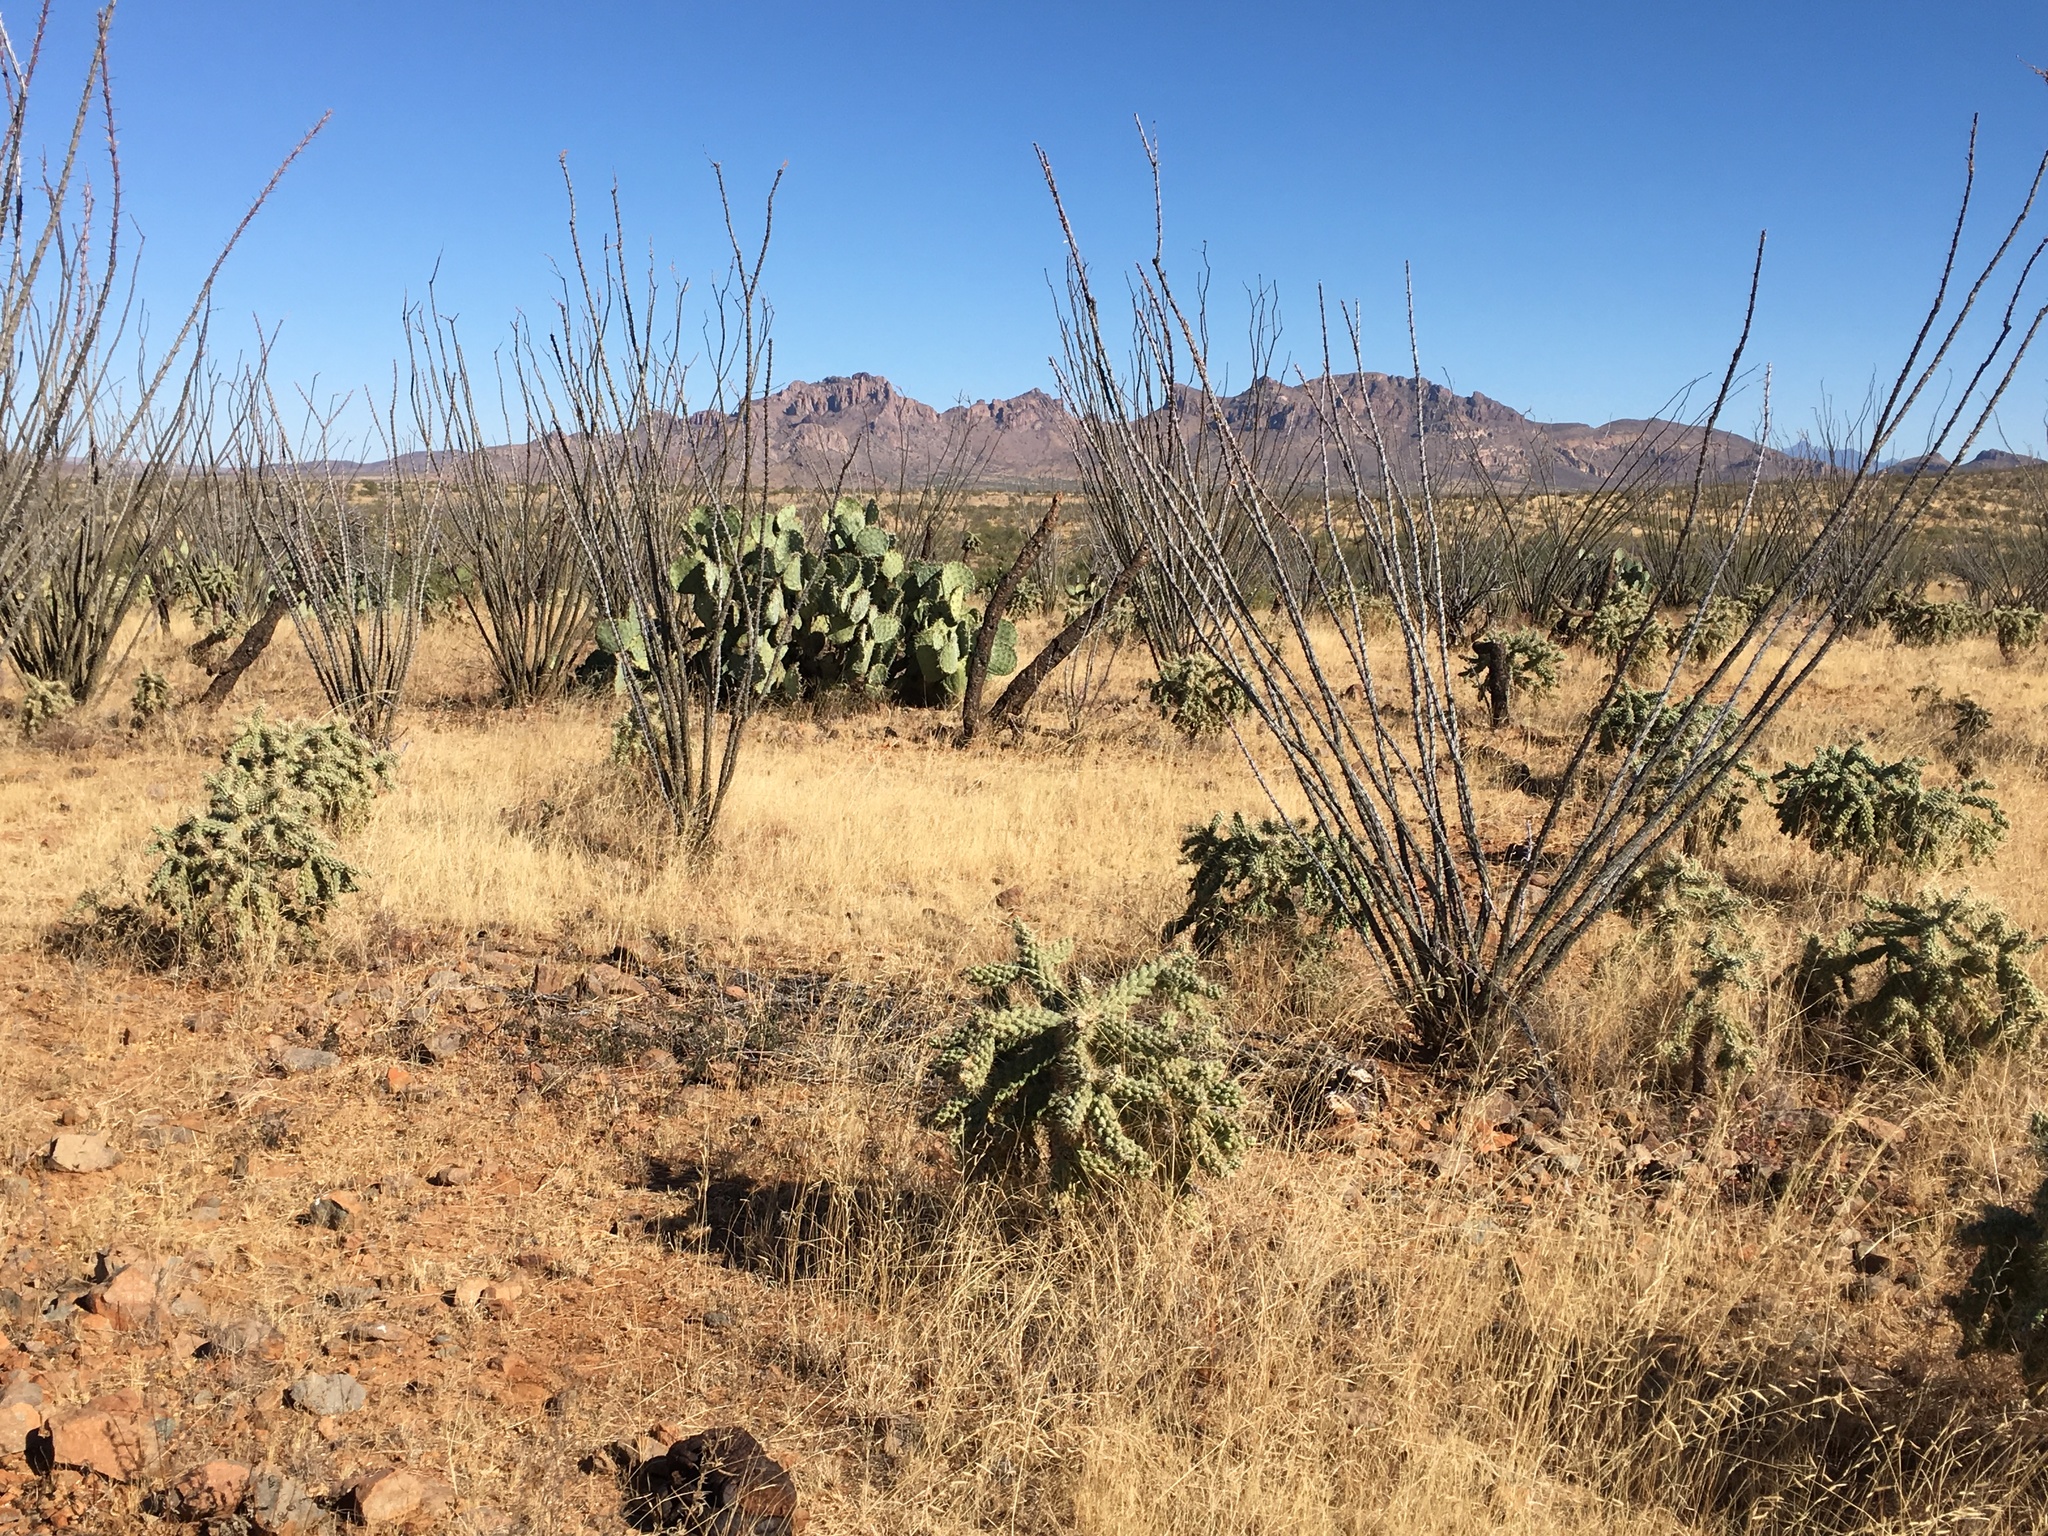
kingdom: Plantae
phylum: Tracheophyta
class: Magnoliopsida
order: Ericales
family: Fouquieriaceae
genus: Fouquieria
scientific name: Fouquieria splendens
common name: Vine-cactus
